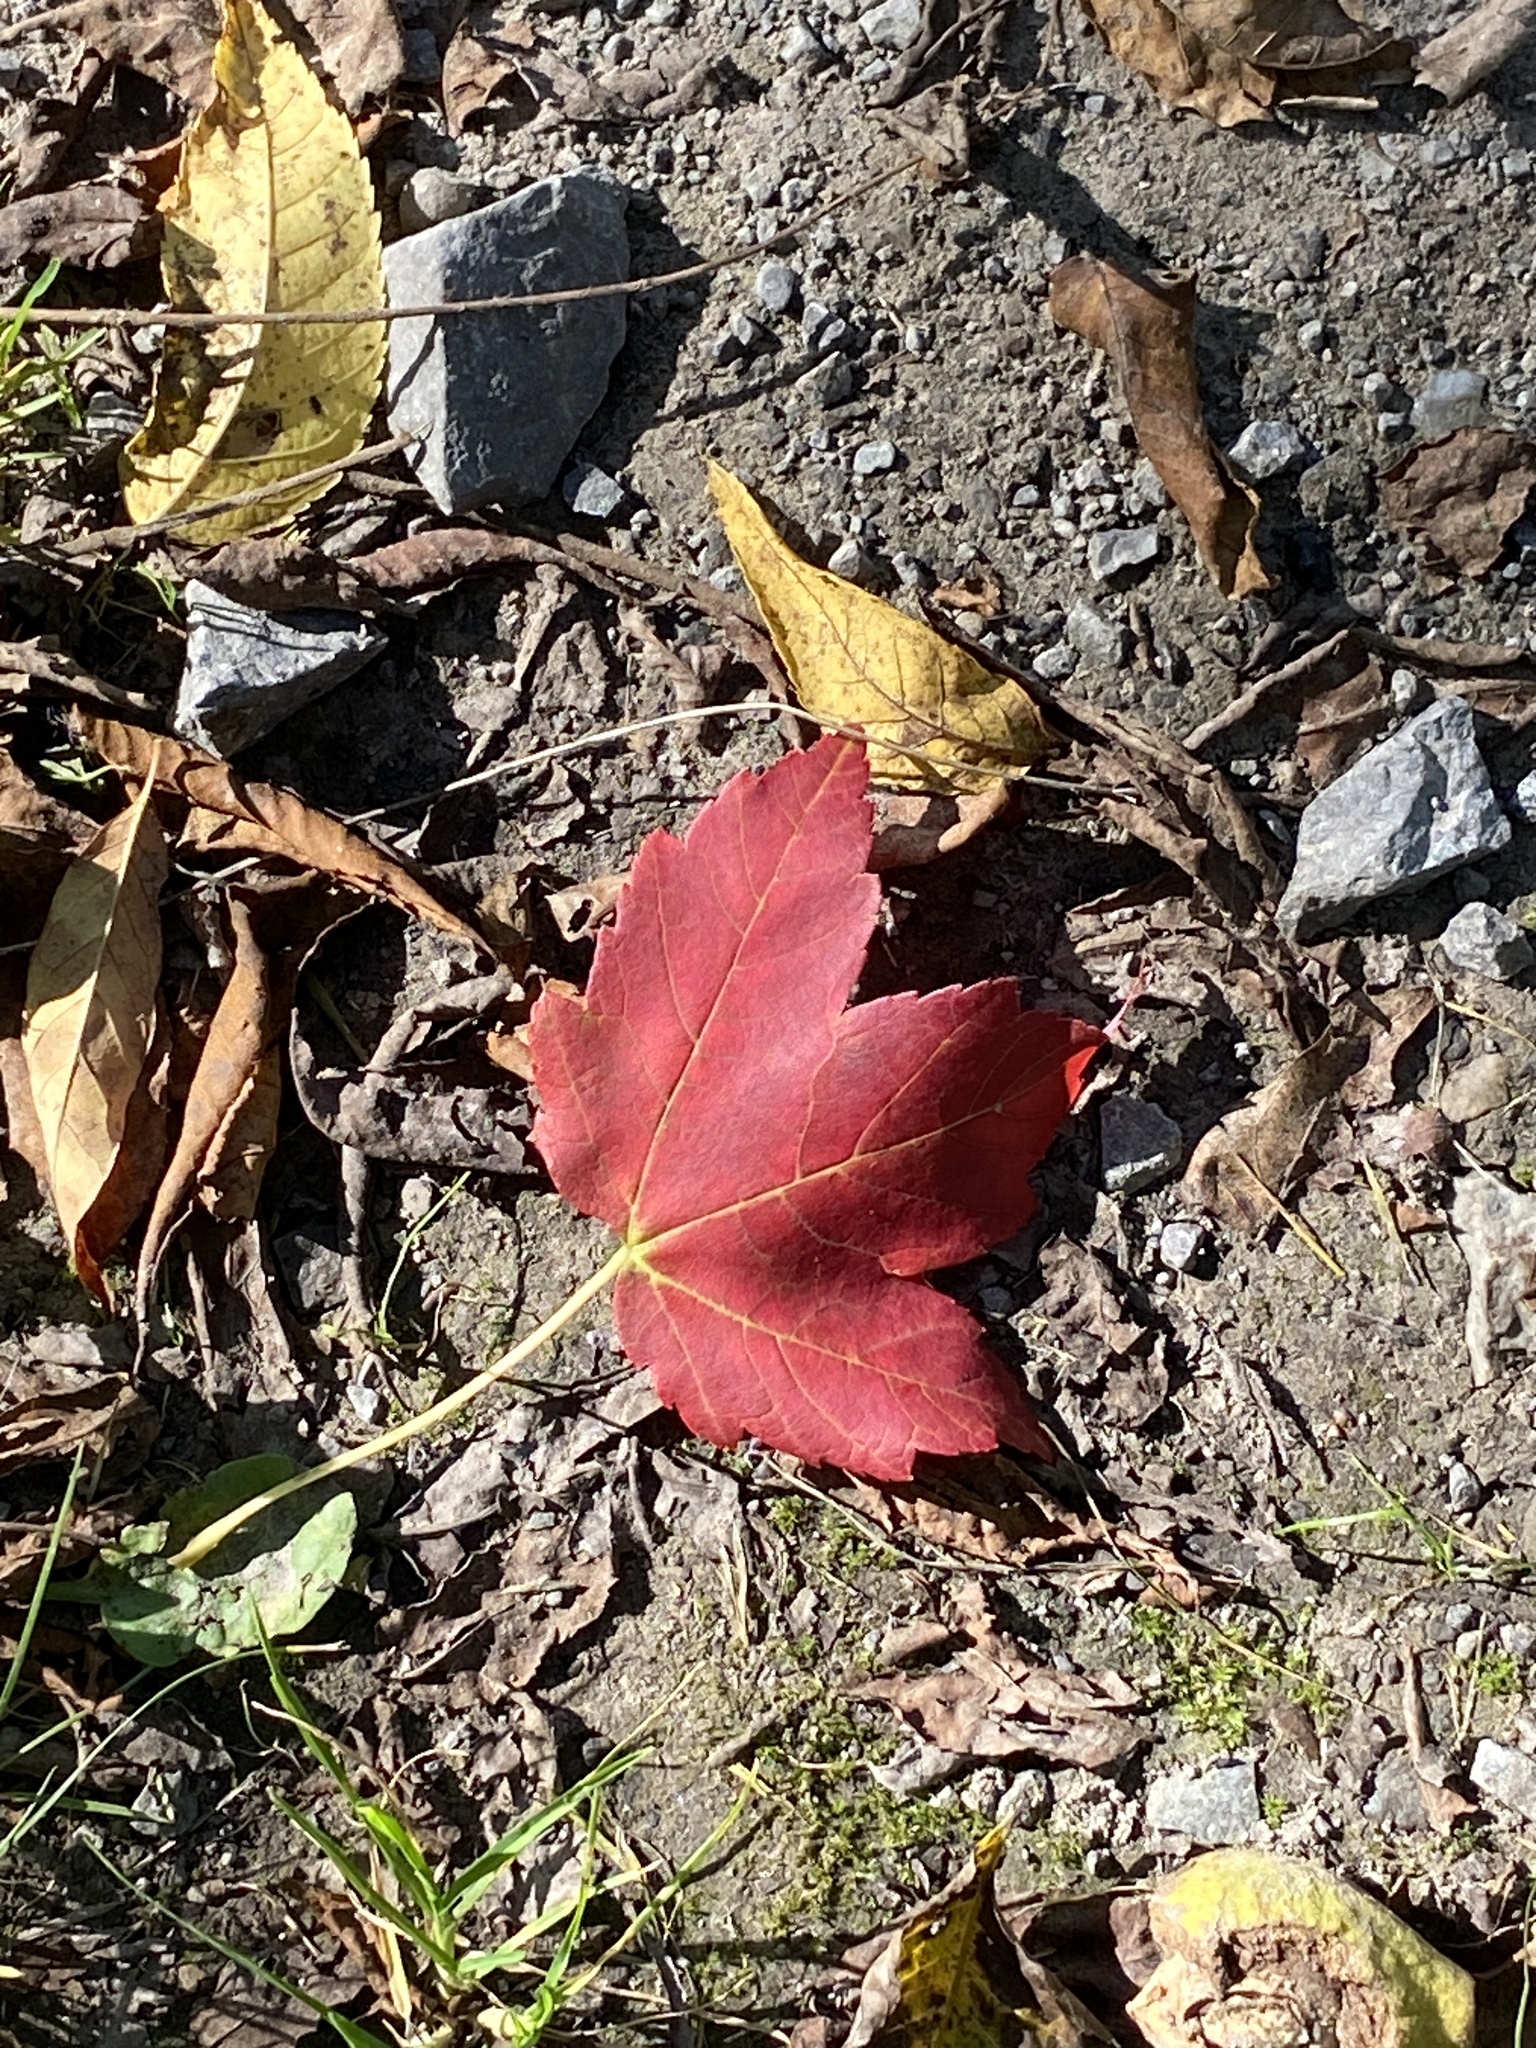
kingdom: Plantae
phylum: Tracheophyta
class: Magnoliopsida
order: Sapindales
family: Sapindaceae
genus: Acer
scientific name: Acer rubrum
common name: Red maple
